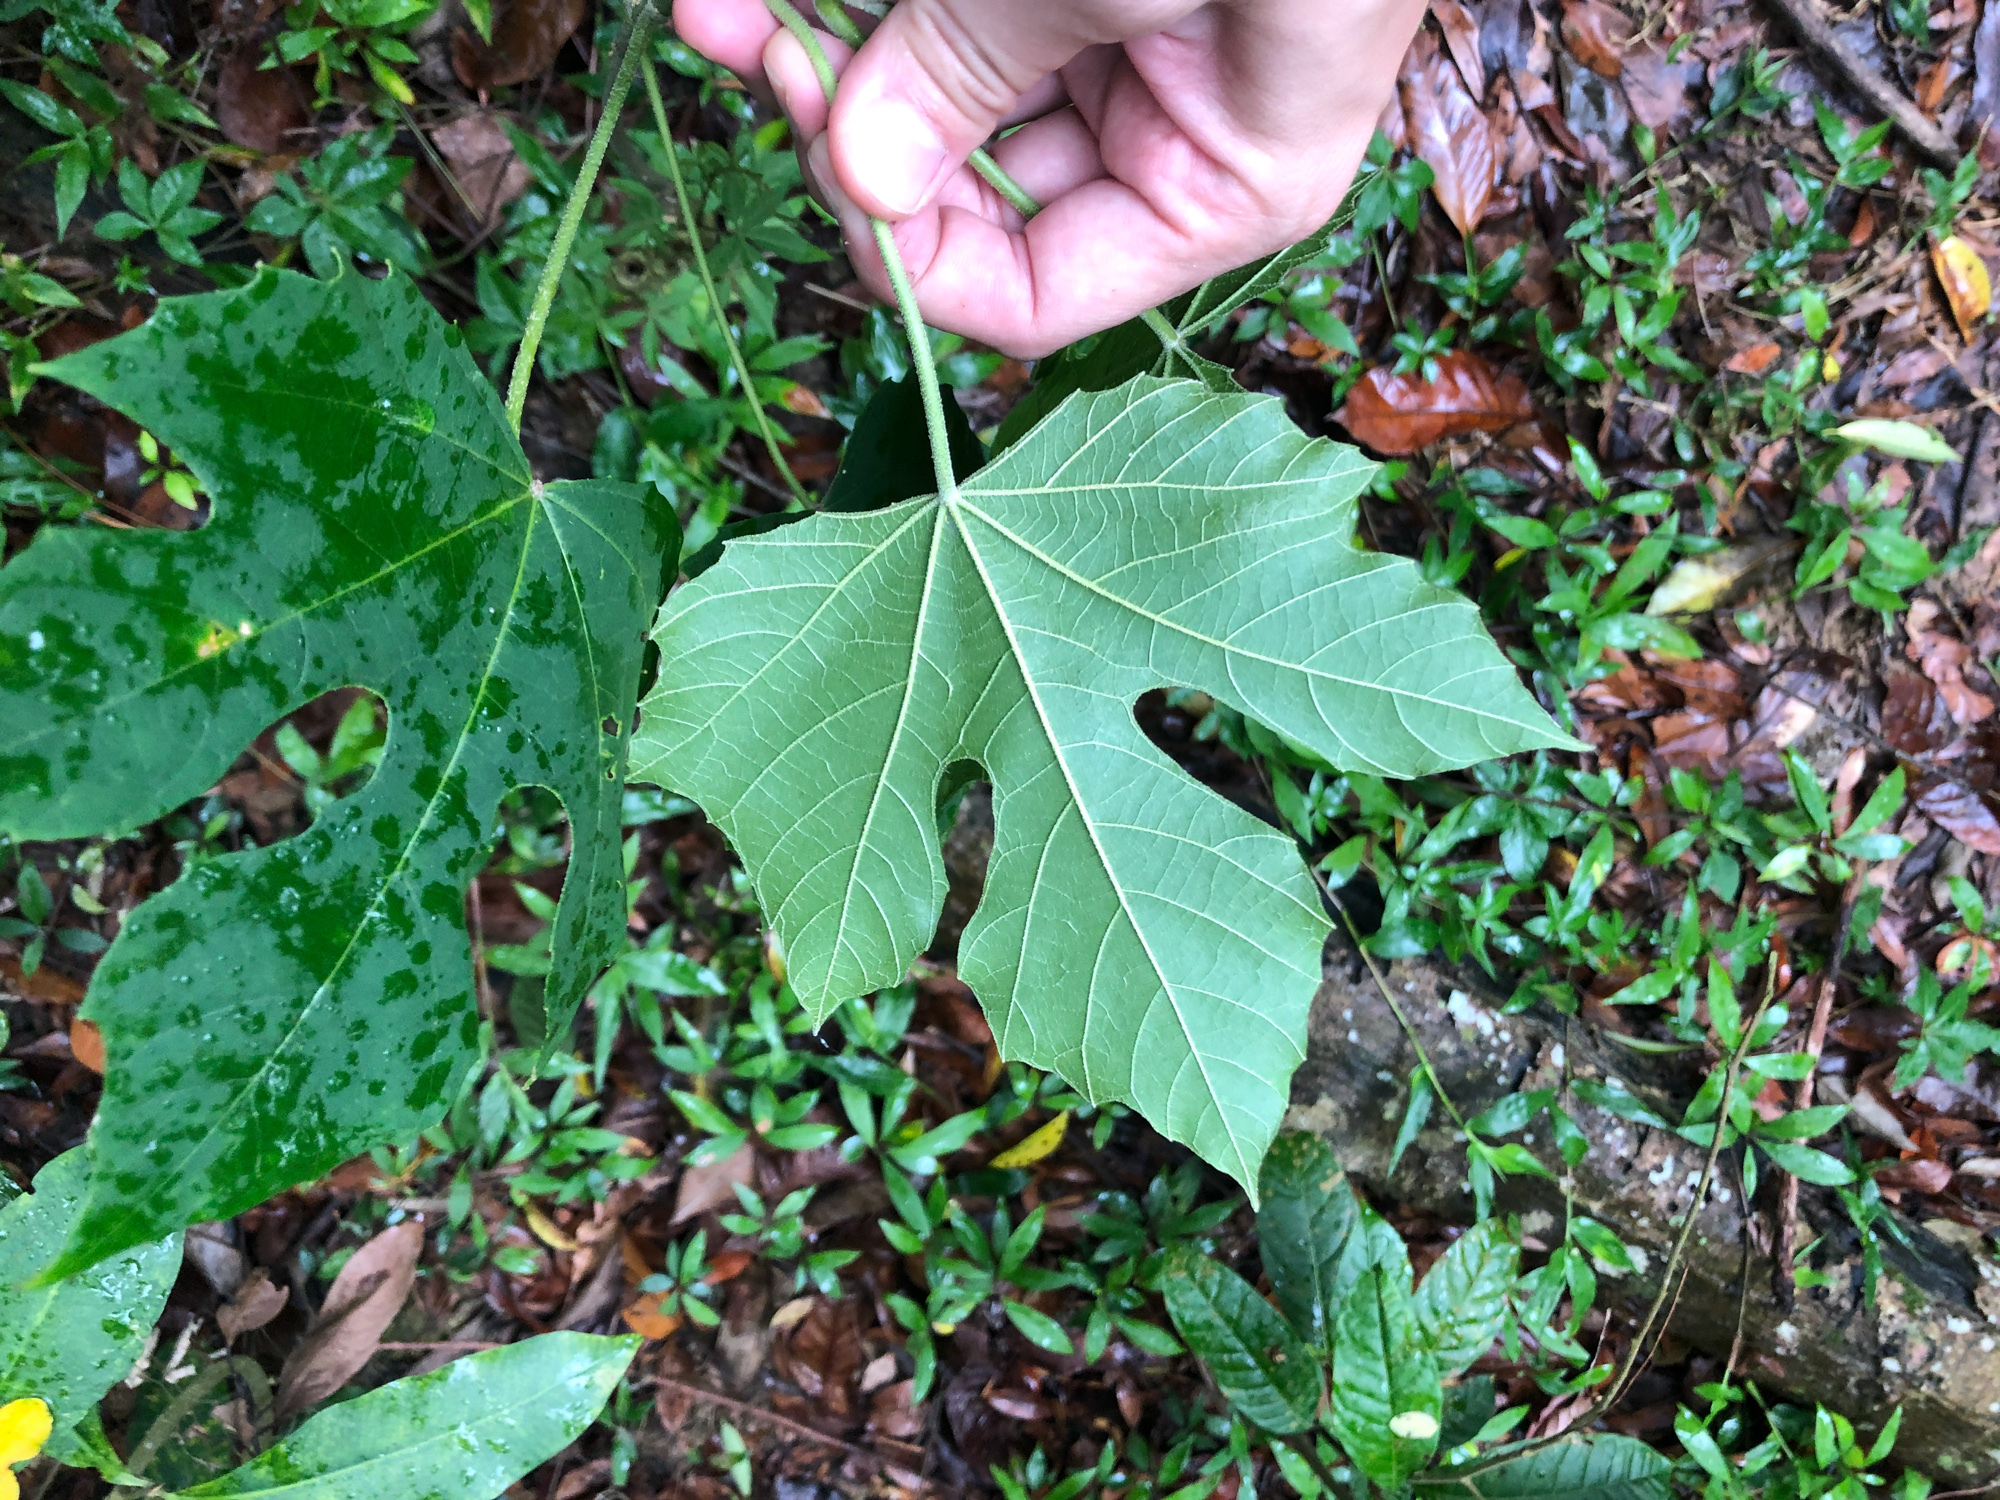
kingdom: Plantae
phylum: Tracheophyta
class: Magnoliopsida
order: Malpighiales
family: Euphorbiaceae
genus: Melanolepis
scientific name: Melanolepis multiglandulosa
